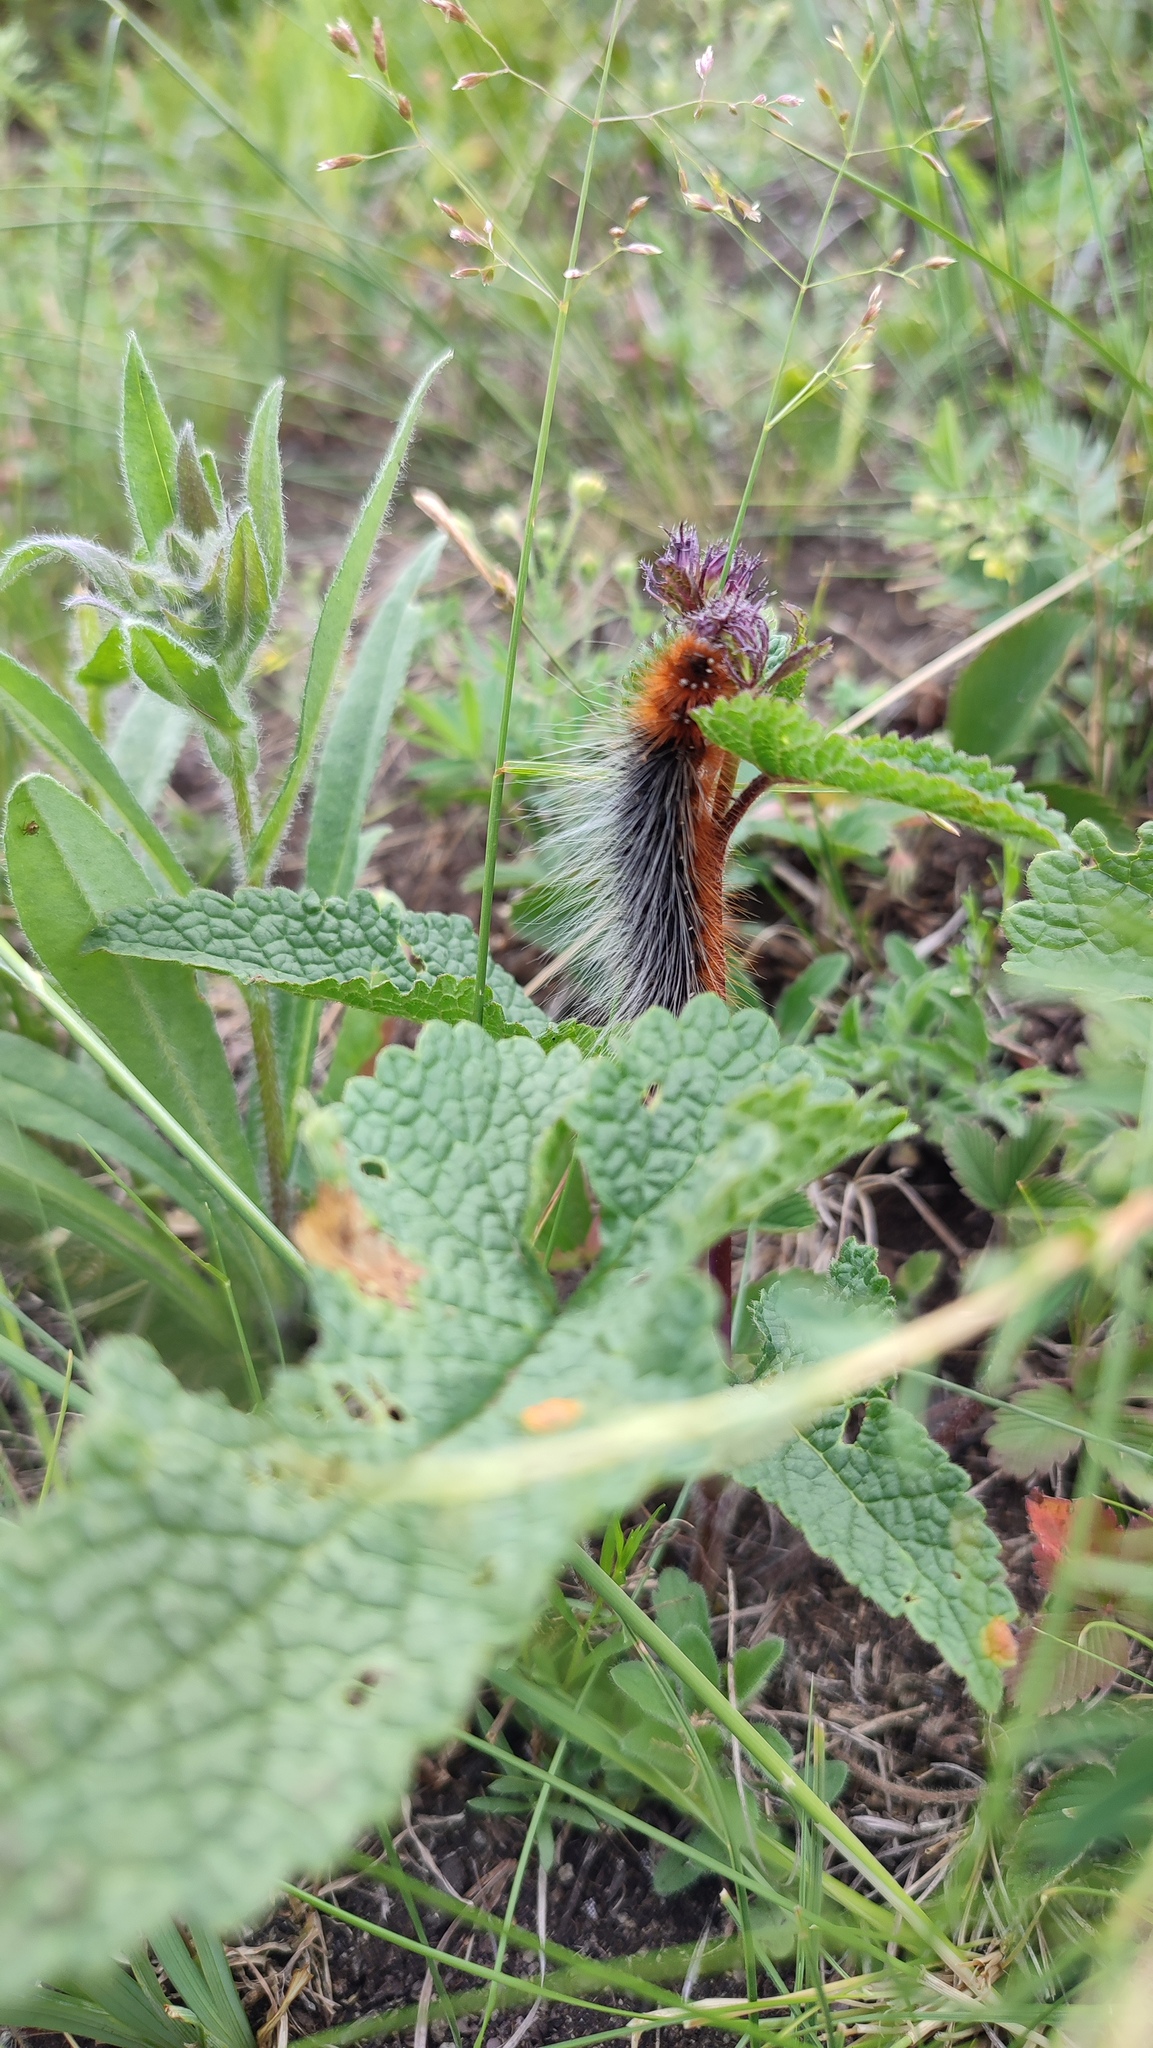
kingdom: Animalia
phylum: Arthropoda
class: Insecta
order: Lepidoptera
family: Erebidae
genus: Arctia
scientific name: Arctia caja
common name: Garden tiger
